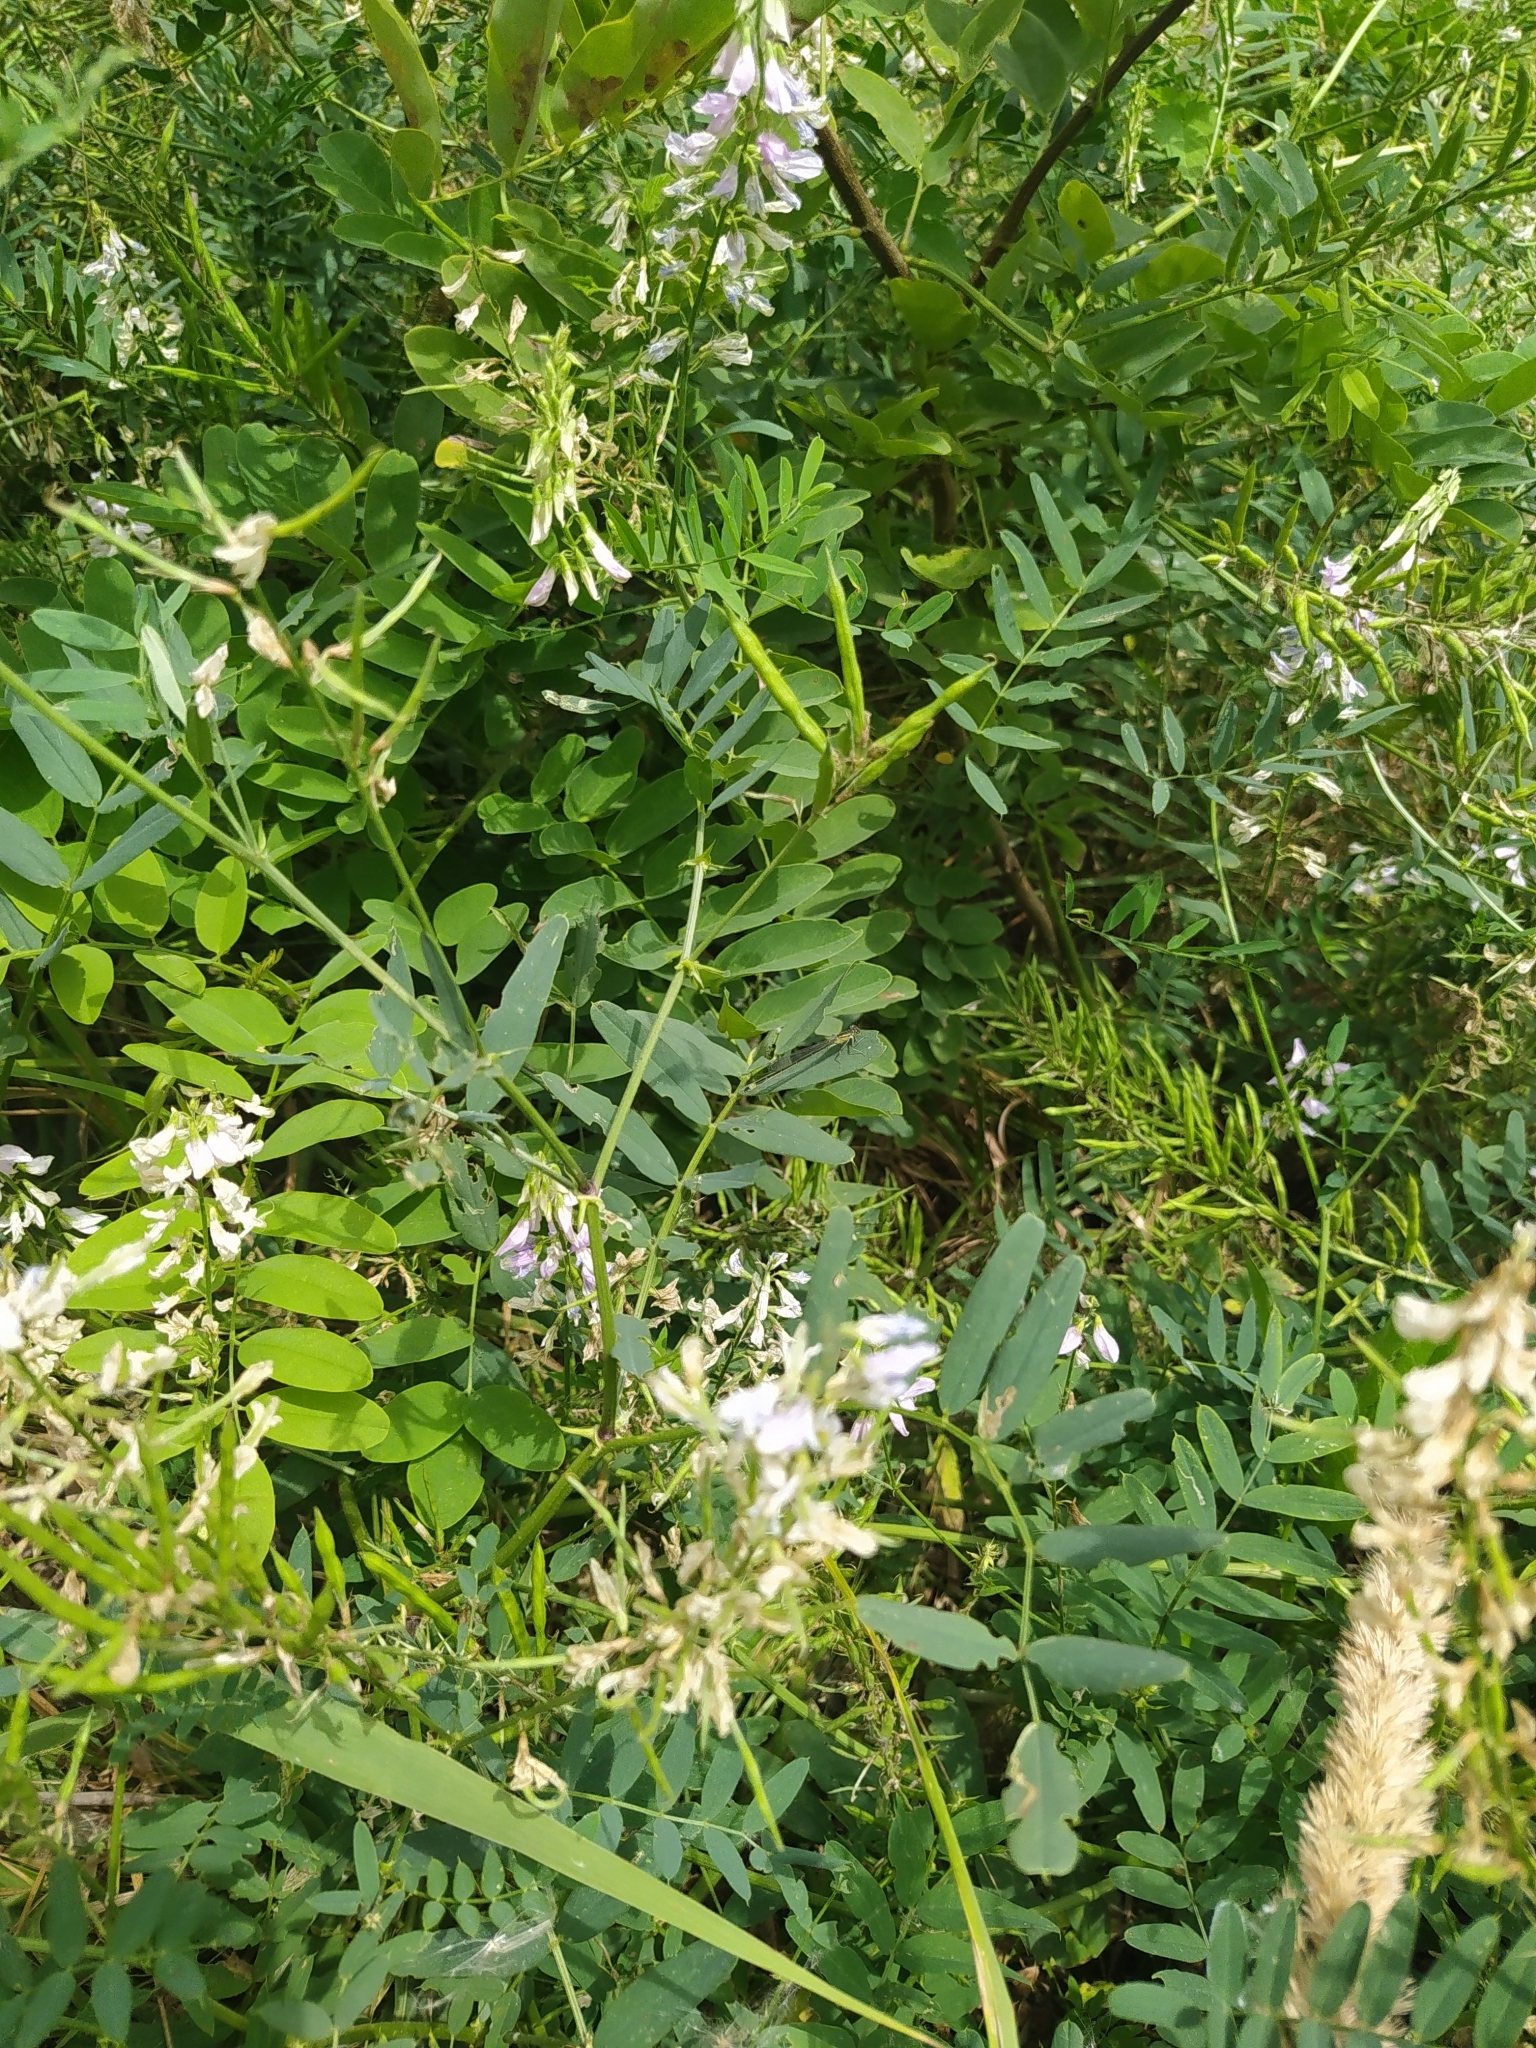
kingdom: Animalia
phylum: Arthropoda
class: Insecta
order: Odonata
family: Coenagrionidae
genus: Ischnura
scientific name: Ischnura elegans
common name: Blue-tailed damselfly
